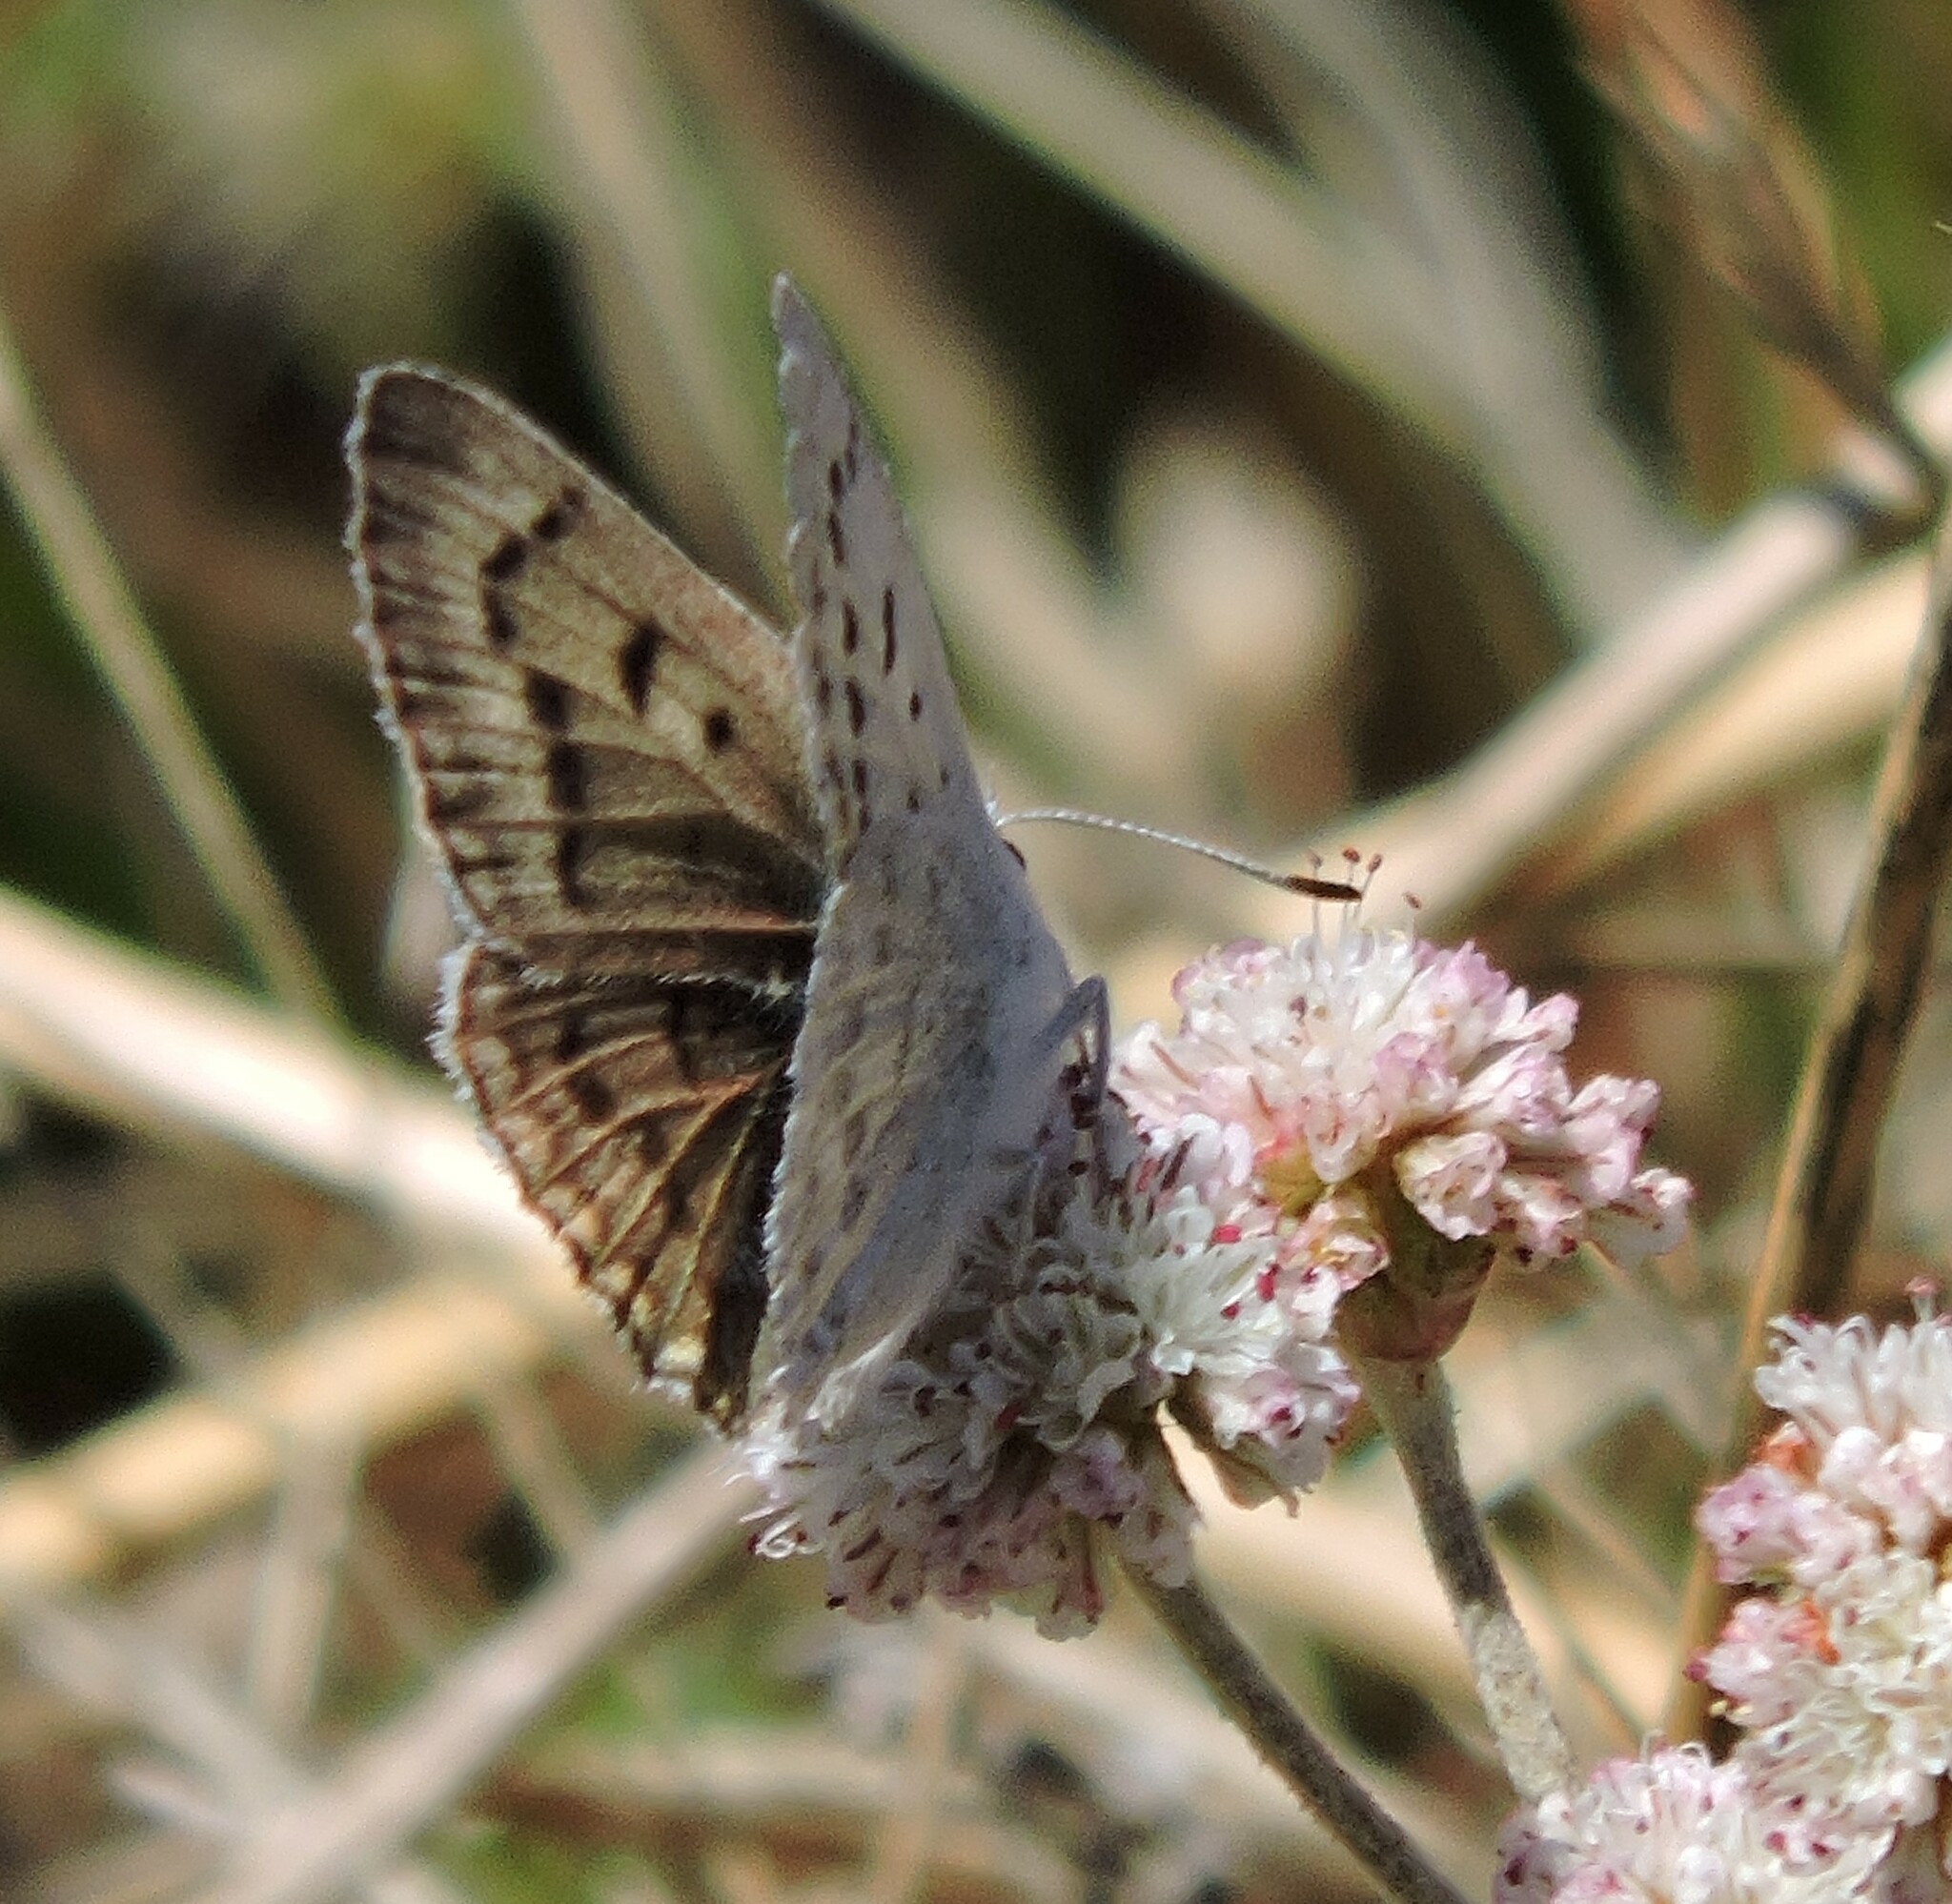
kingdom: Animalia
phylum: Arthropoda
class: Insecta
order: Lepidoptera
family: Lycaenidae
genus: Tharsalea
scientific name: Tharsalea heteronea
